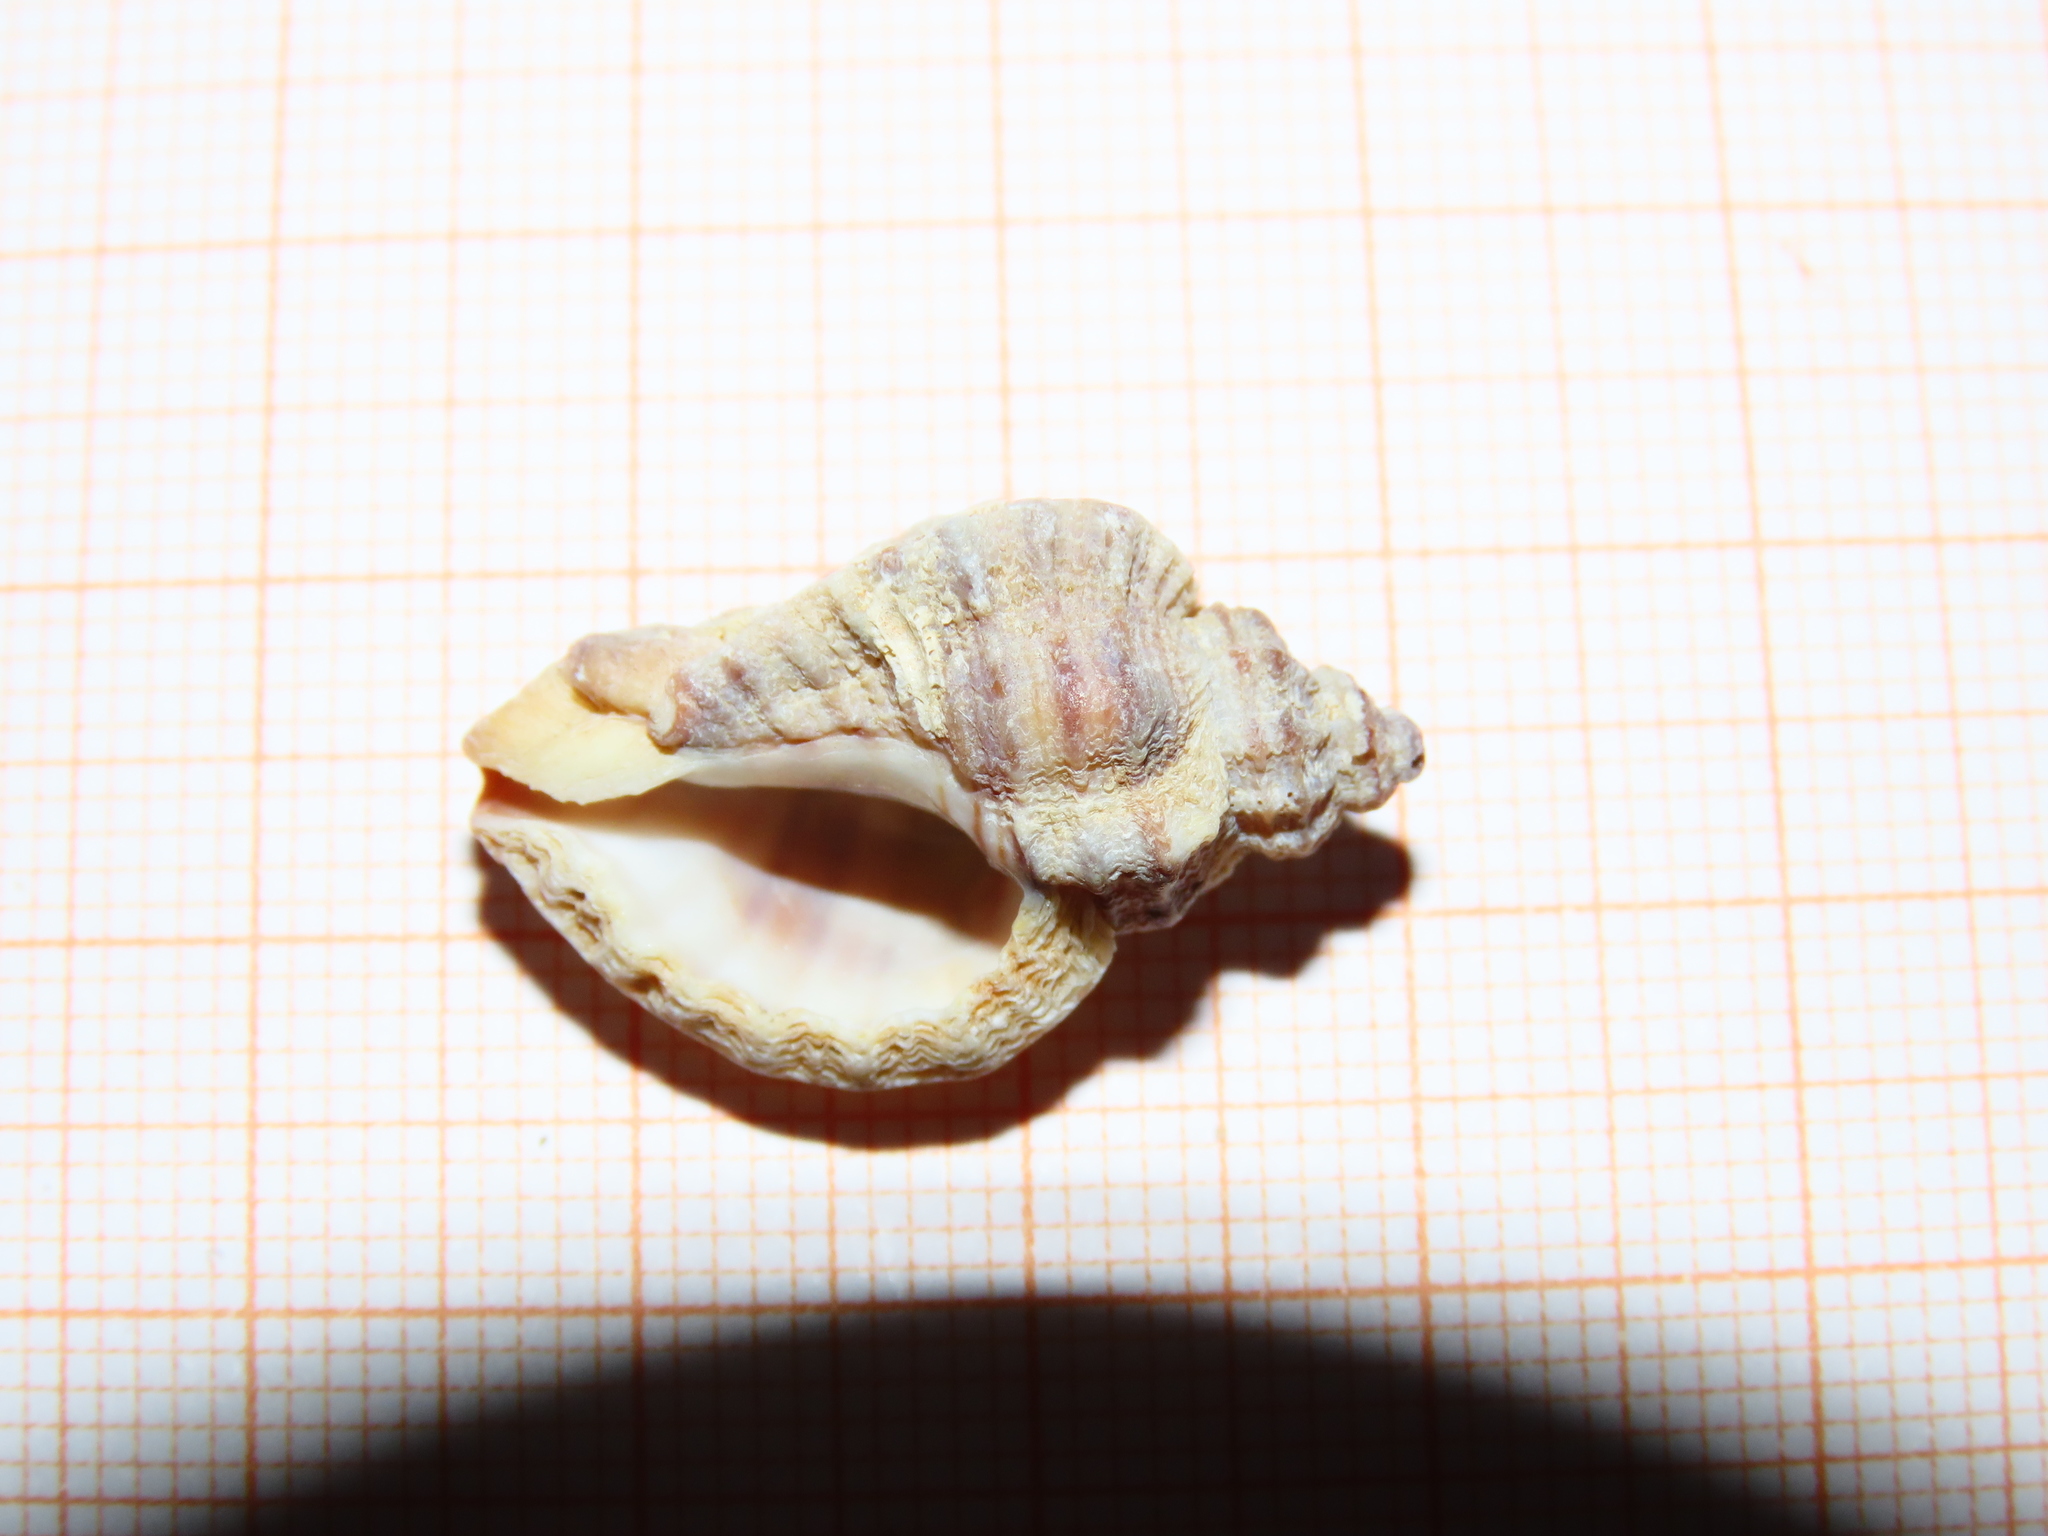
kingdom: Animalia
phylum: Mollusca
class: Gastropoda
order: Neogastropoda
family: Muricidae
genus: Ocenebra
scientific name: Ocenebra erinaceus
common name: European sting winkle
